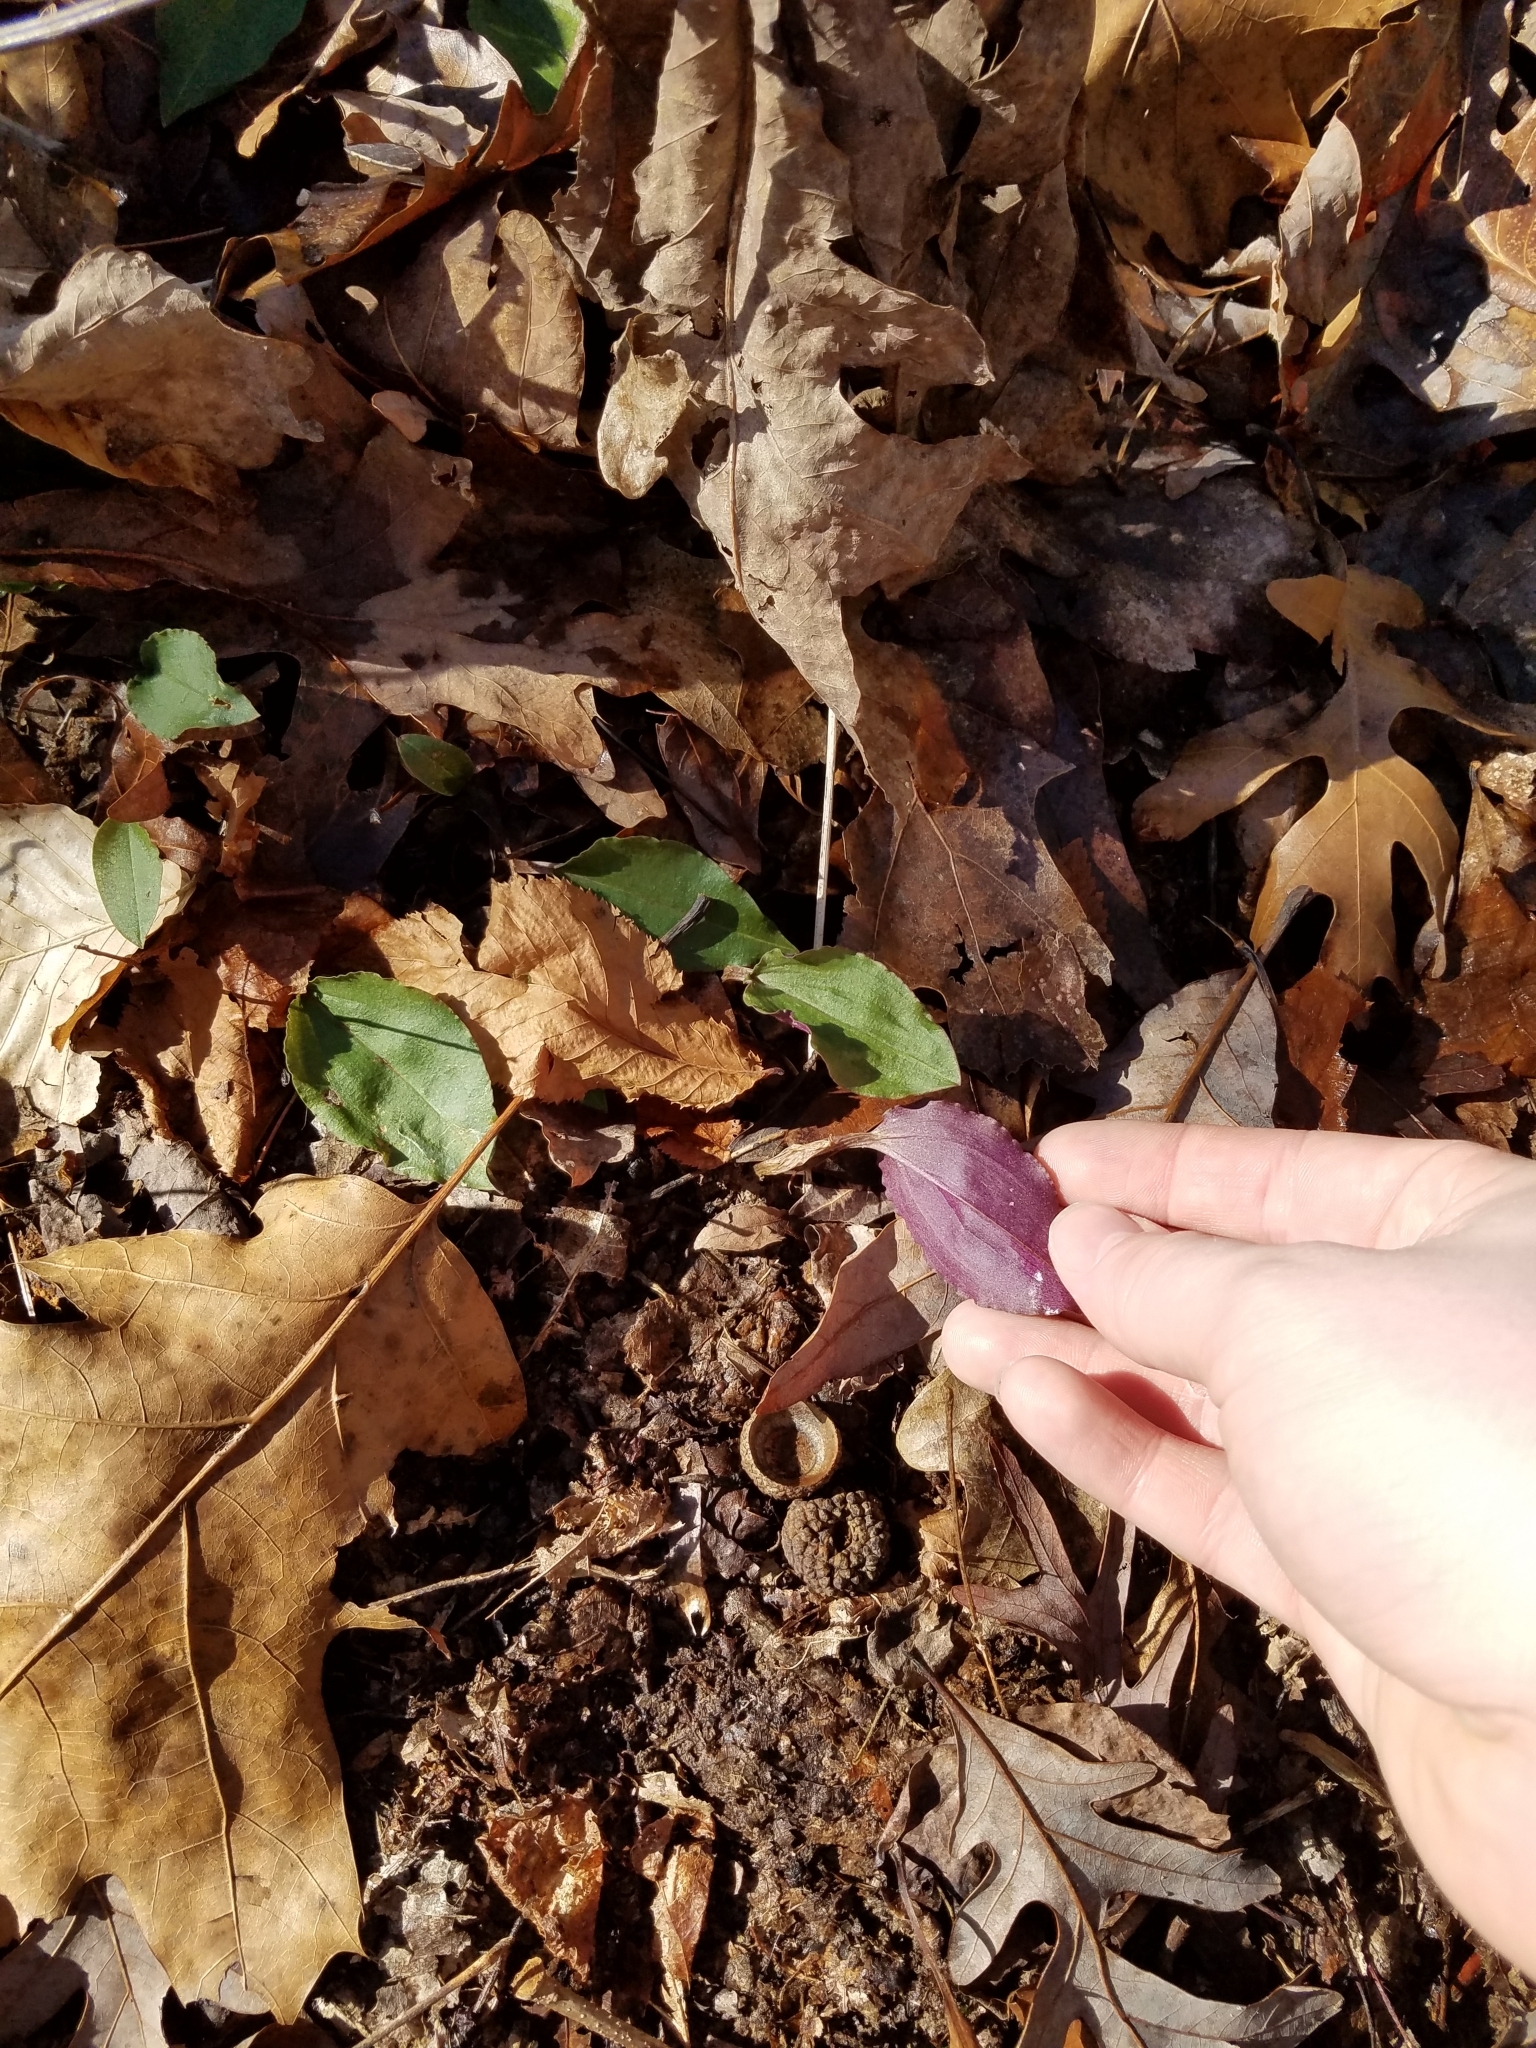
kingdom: Plantae
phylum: Tracheophyta
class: Liliopsida
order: Asparagales
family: Orchidaceae
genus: Tipularia
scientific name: Tipularia discolor
